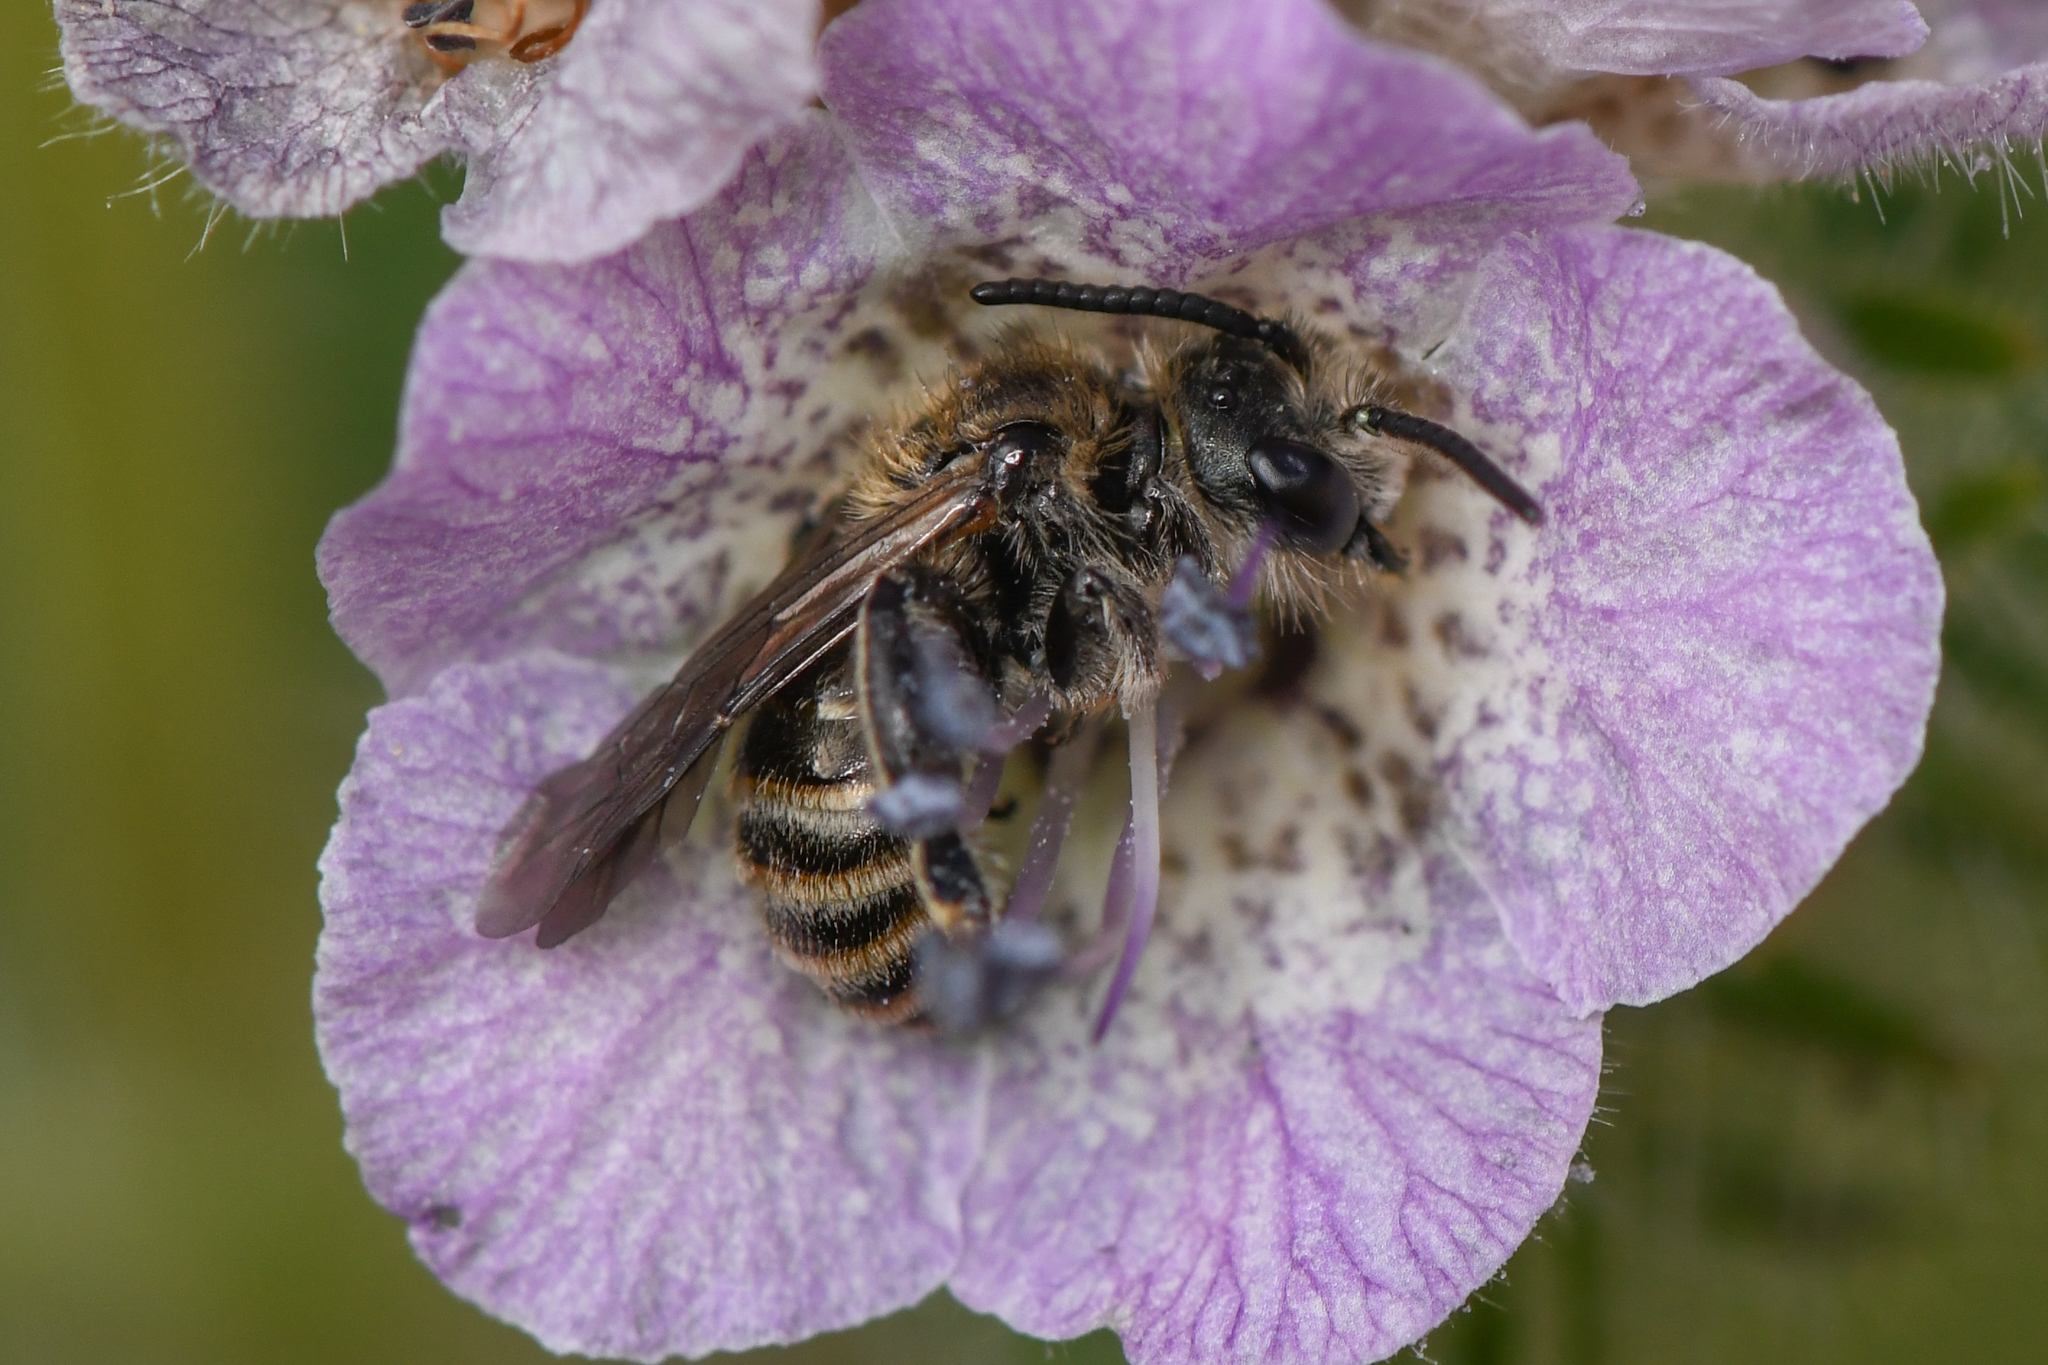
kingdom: Animalia
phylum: Arthropoda
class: Insecta
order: Hymenoptera
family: Halictidae
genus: Dufourea
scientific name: Dufourea mulleri
